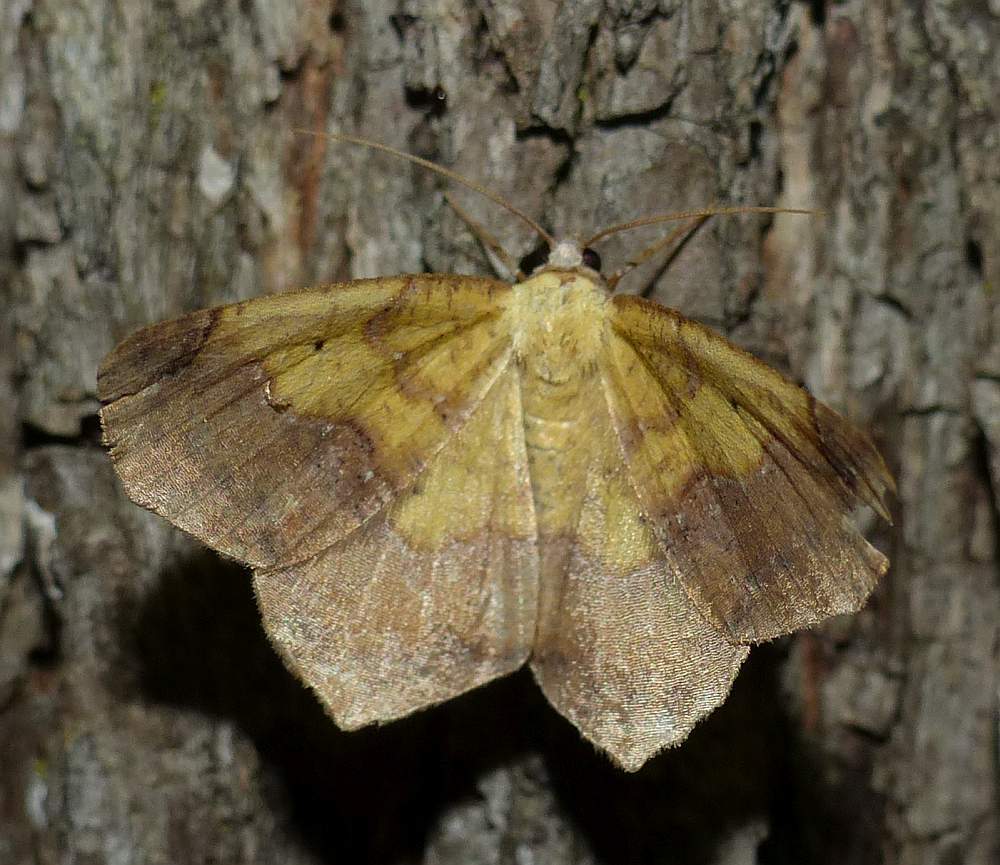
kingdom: Animalia
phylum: Arthropoda
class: Insecta
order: Lepidoptera
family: Geometridae
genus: Antepione
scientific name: Antepione thisoaria
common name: Variable antipione
